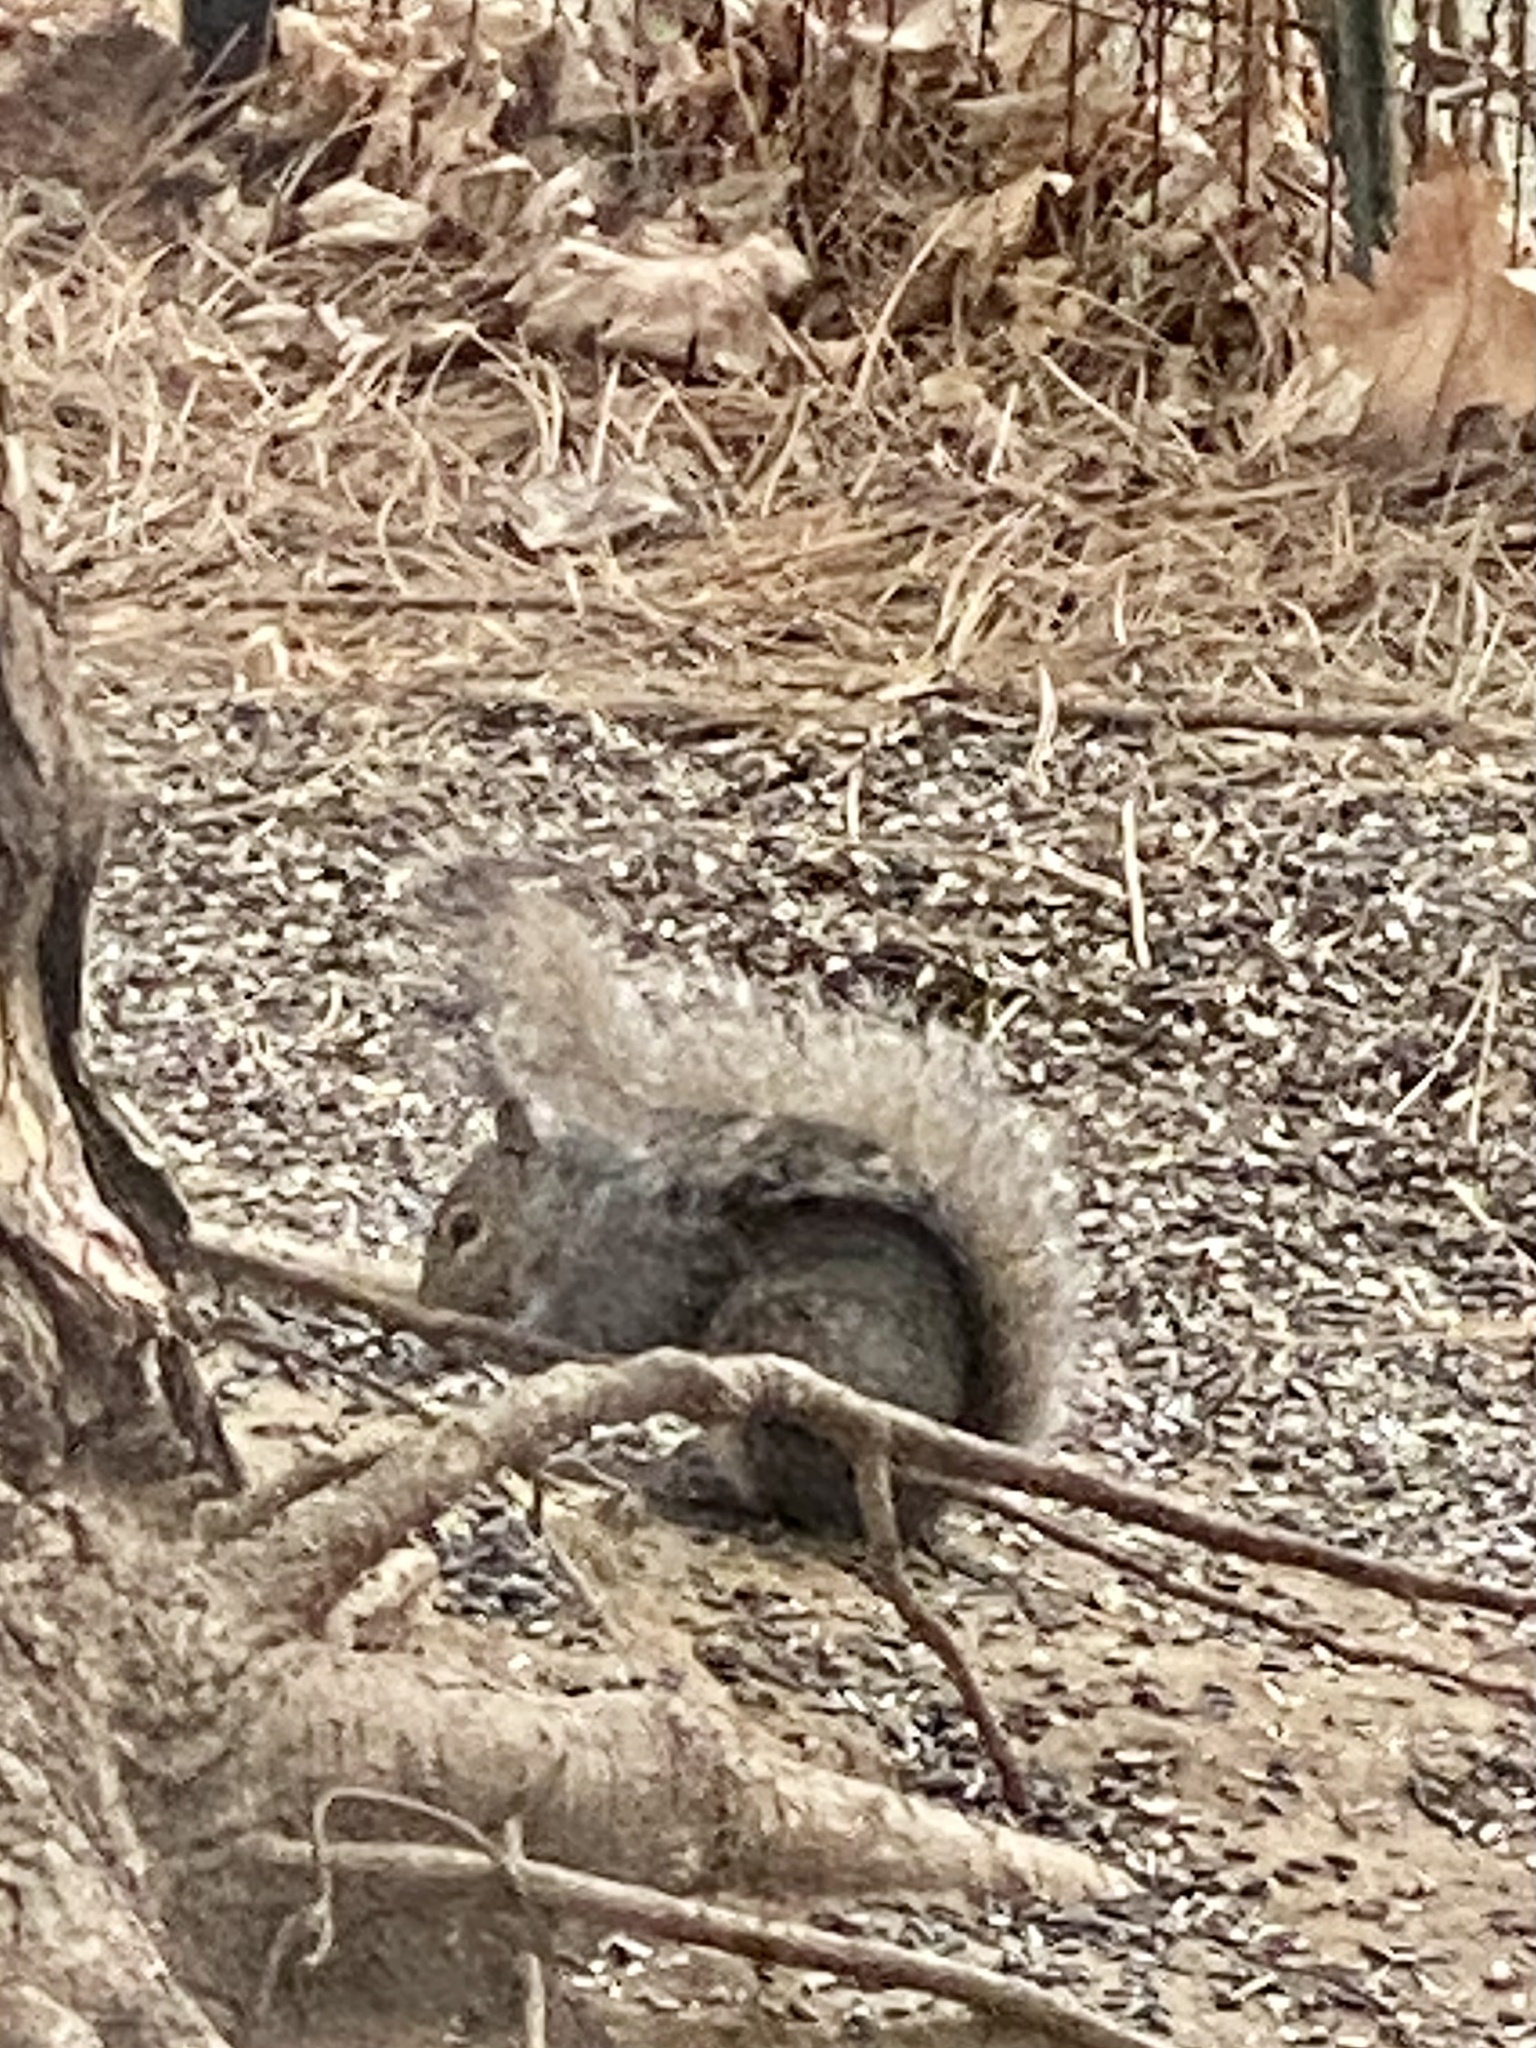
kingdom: Animalia
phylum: Chordata
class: Mammalia
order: Rodentia
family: Sciuridae
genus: Sciurus
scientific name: Sciurus carolinensis
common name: Eastern gray squirrel
